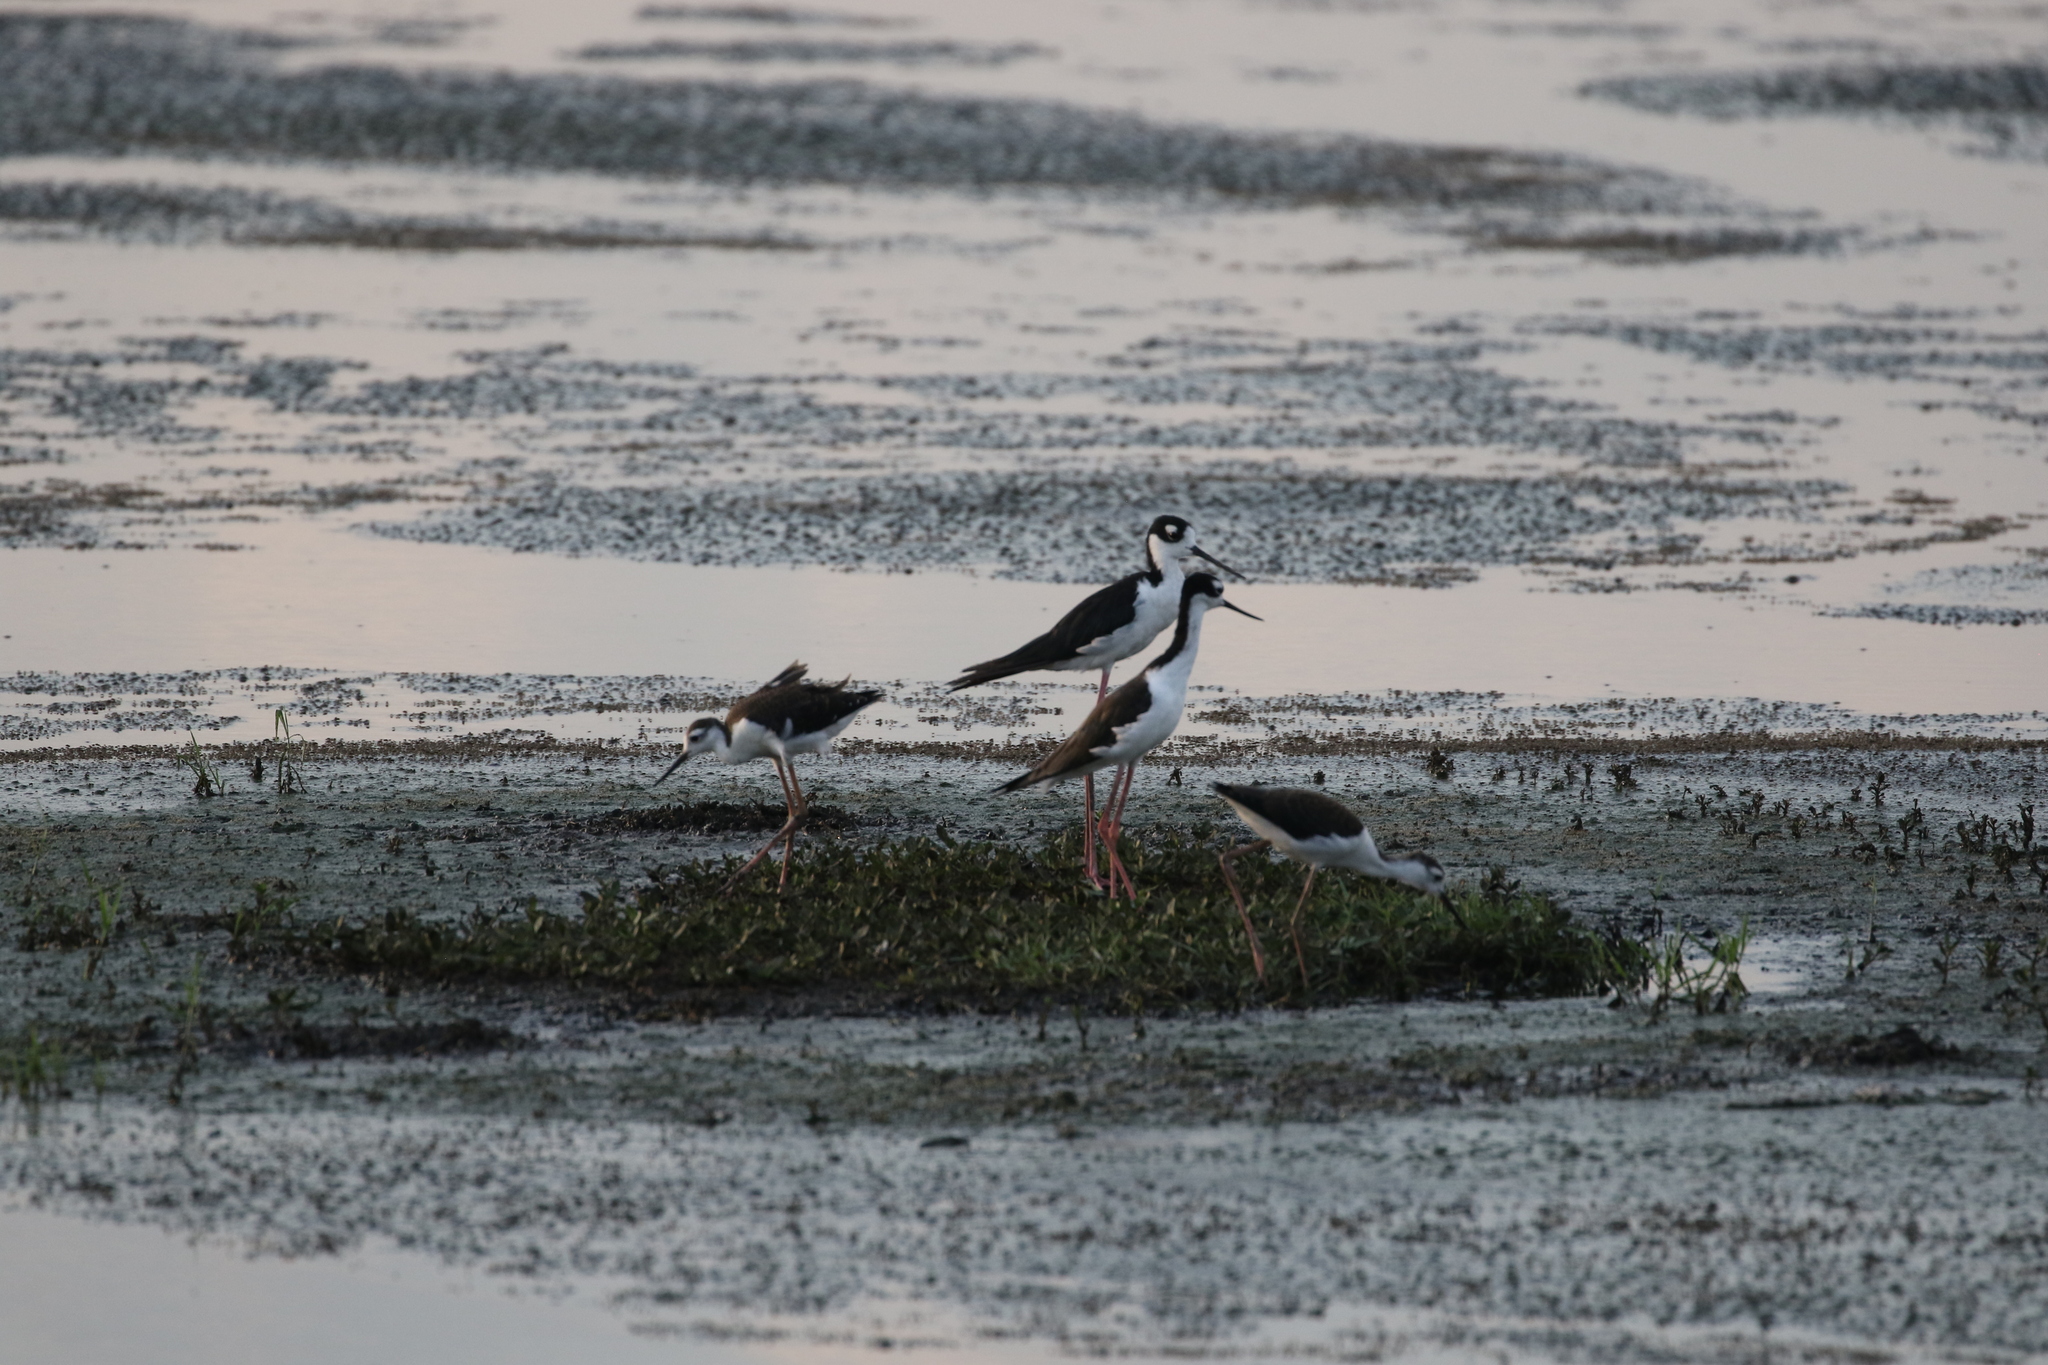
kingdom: Animalia
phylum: Chordata
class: Aves
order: Charadriiformes
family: Recurvirostridae
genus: Himantopus
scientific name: Himantopus mexicanus
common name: Black-necked stilt
